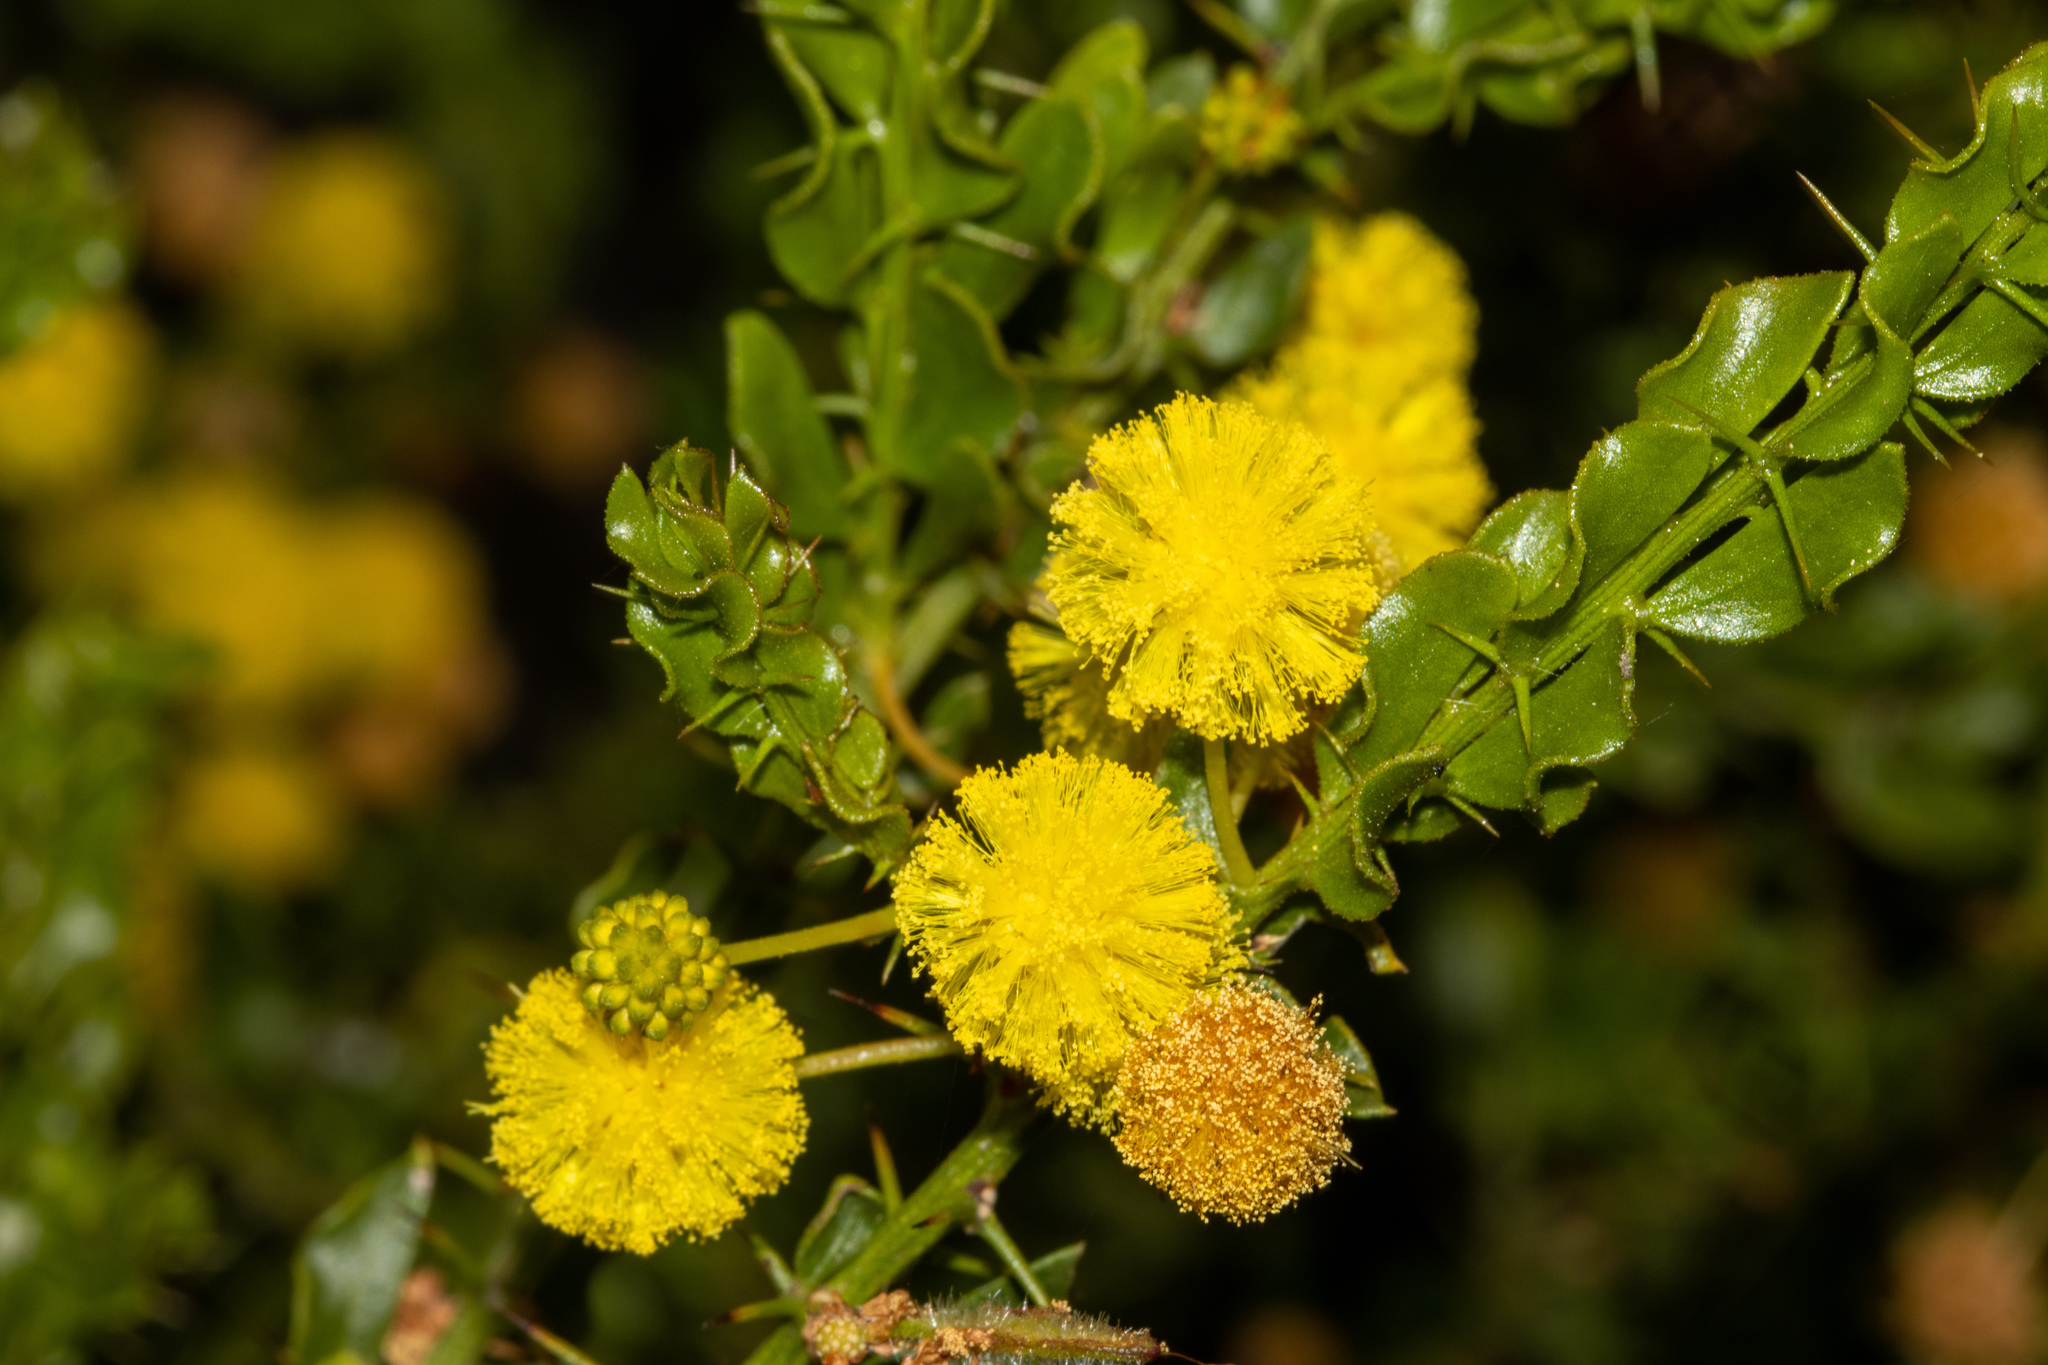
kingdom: Plantae
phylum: Tracheophyta
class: Magnoliopsida
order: Fabales
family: Fabaceae
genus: Acacia
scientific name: Acacia paradoxa
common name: Paradox acacia
